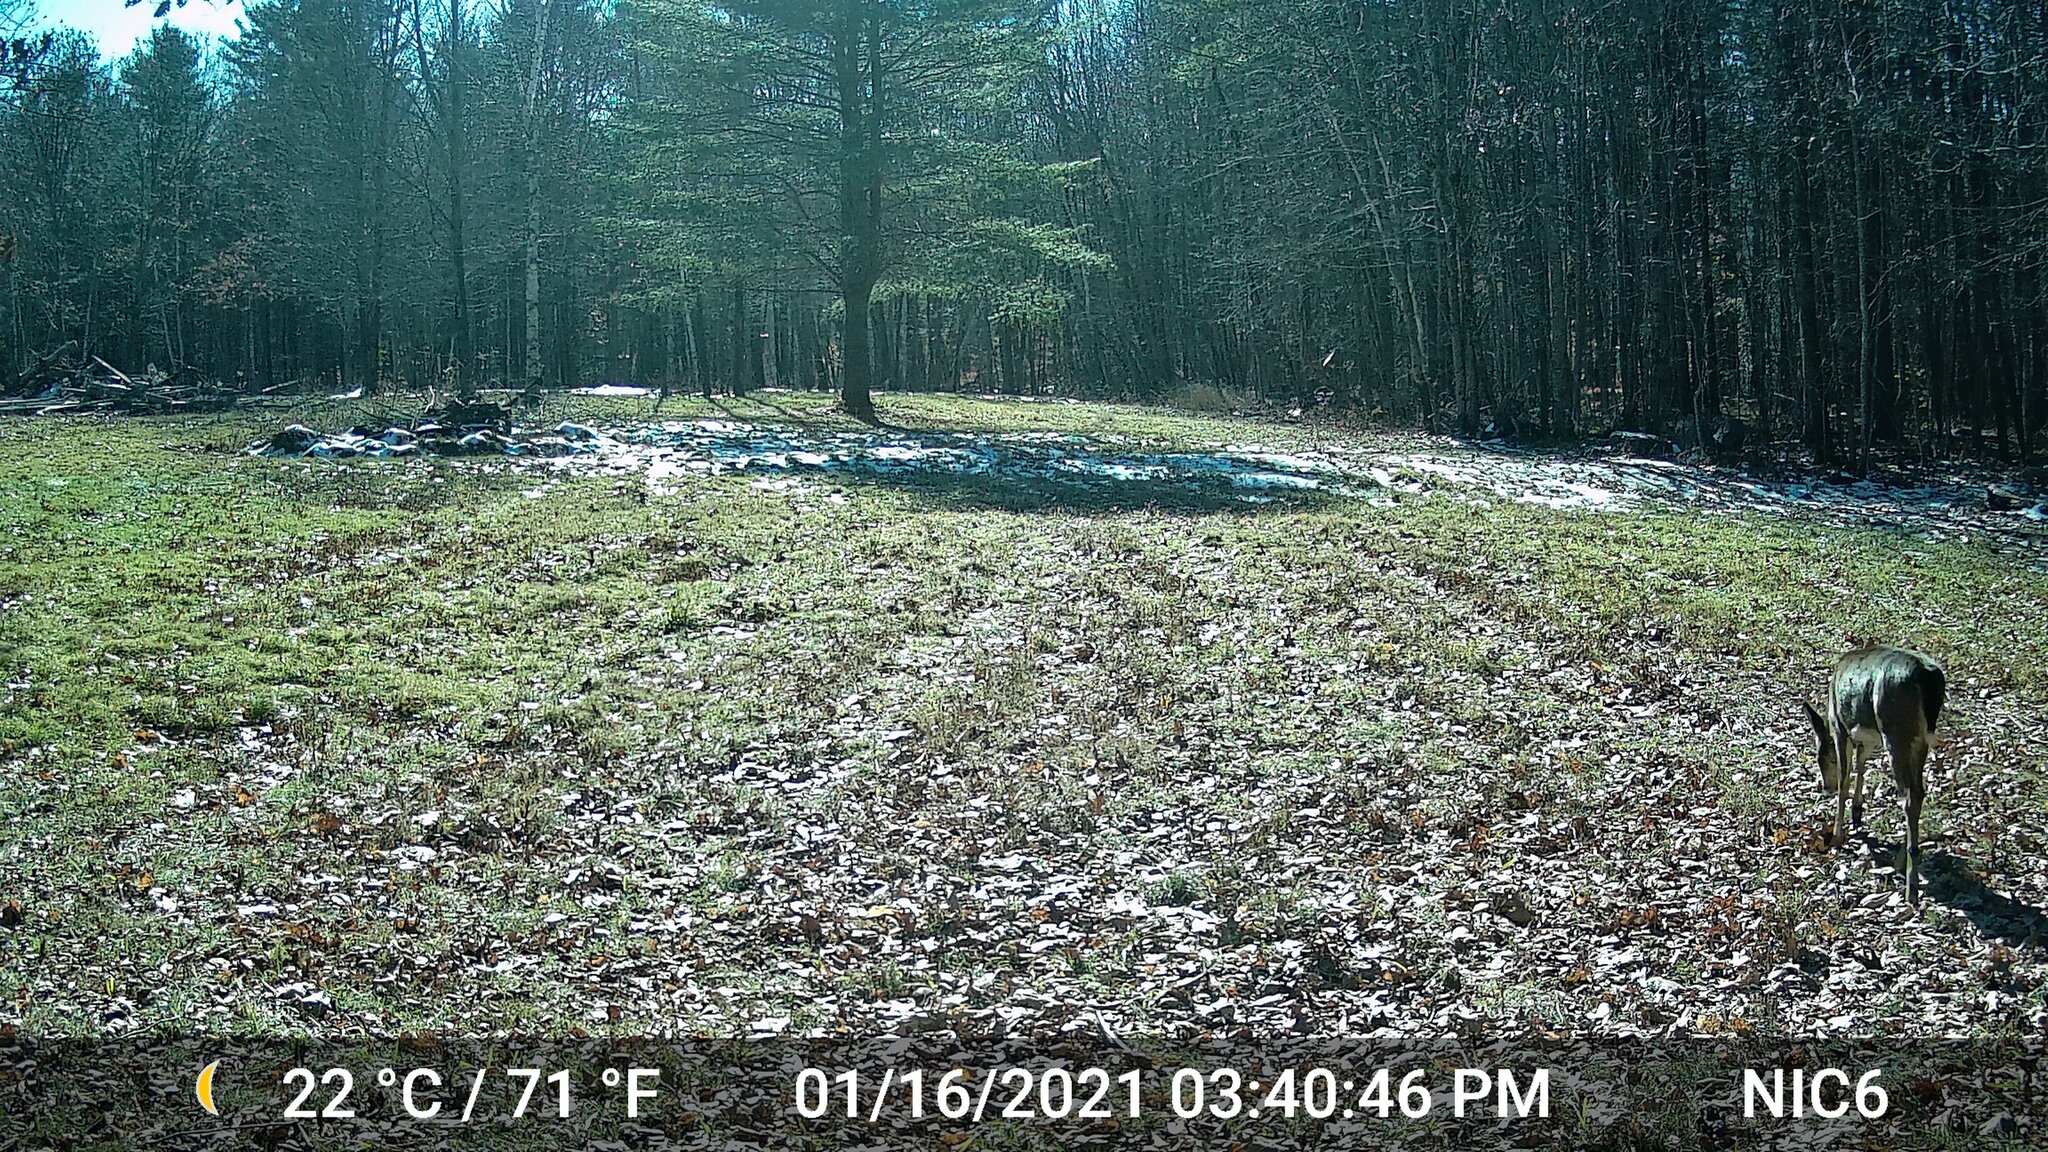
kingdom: Animalia
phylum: Chordata
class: Mammalia
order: Artiodactyla
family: Cervidae
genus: Odocoileus
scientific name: Odocoileus virginianus
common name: White-tailed deer
